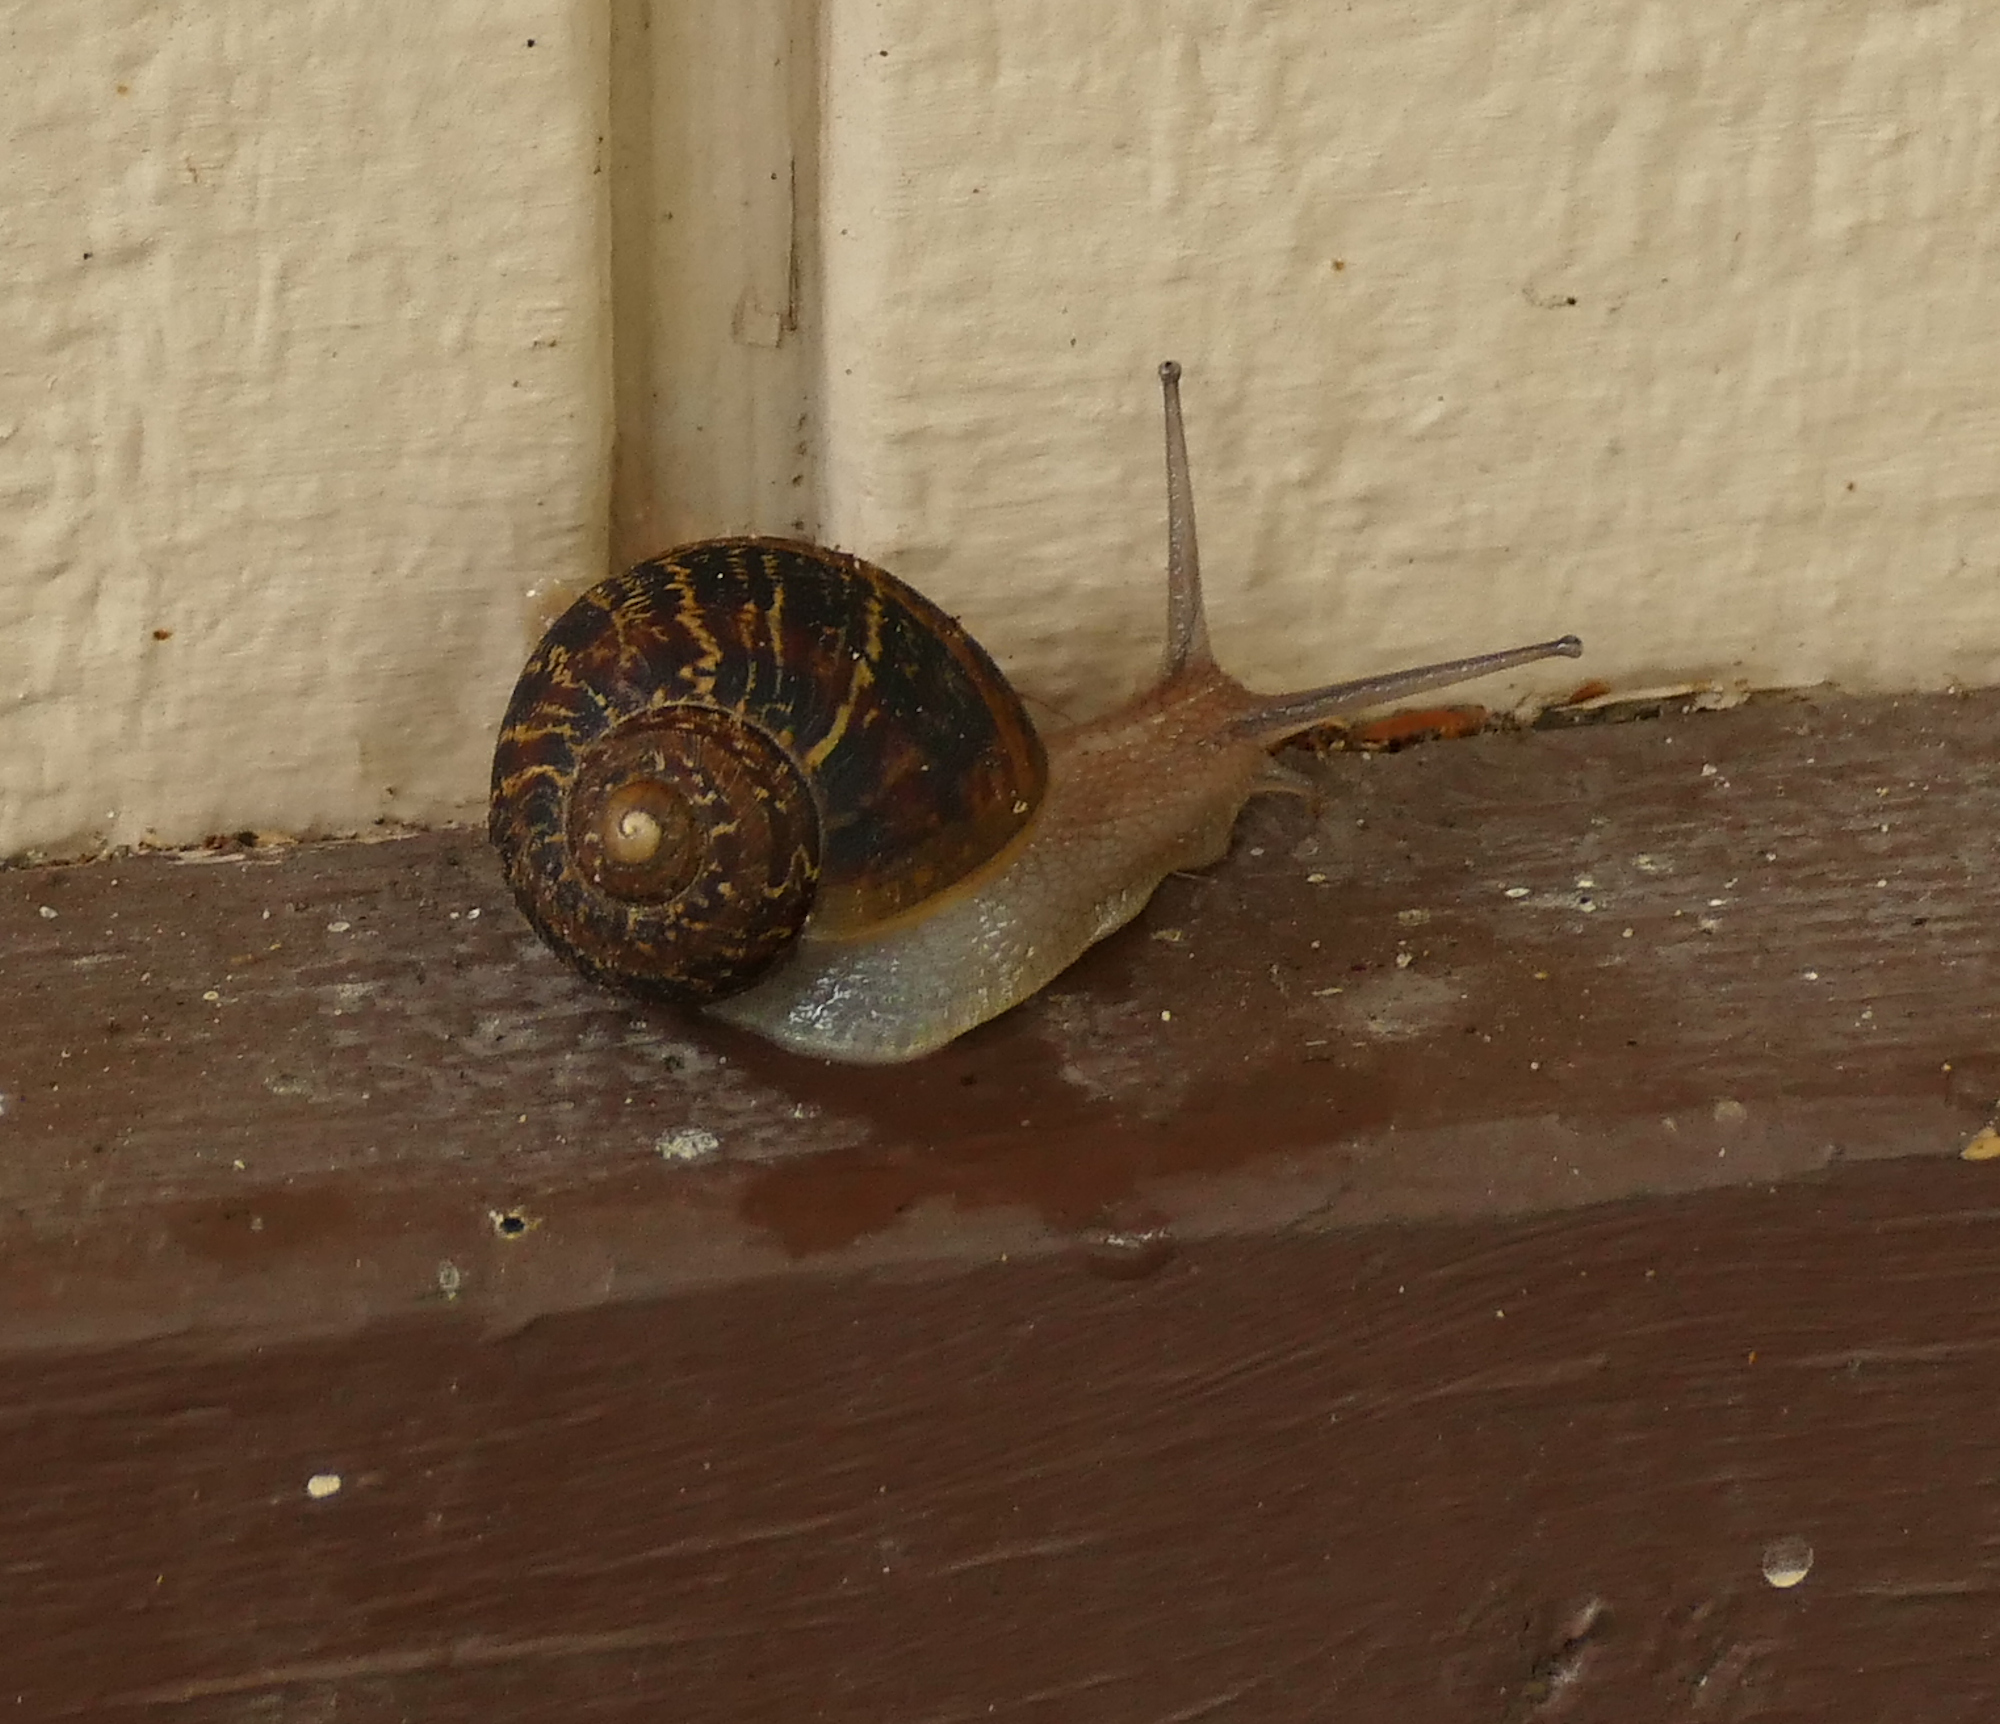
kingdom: Animalia
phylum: Mollusca
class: Gastropoda
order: Stylommatophora
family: Helicidae
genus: Cornu
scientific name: Cornu aspersum
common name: Brown garden snail
